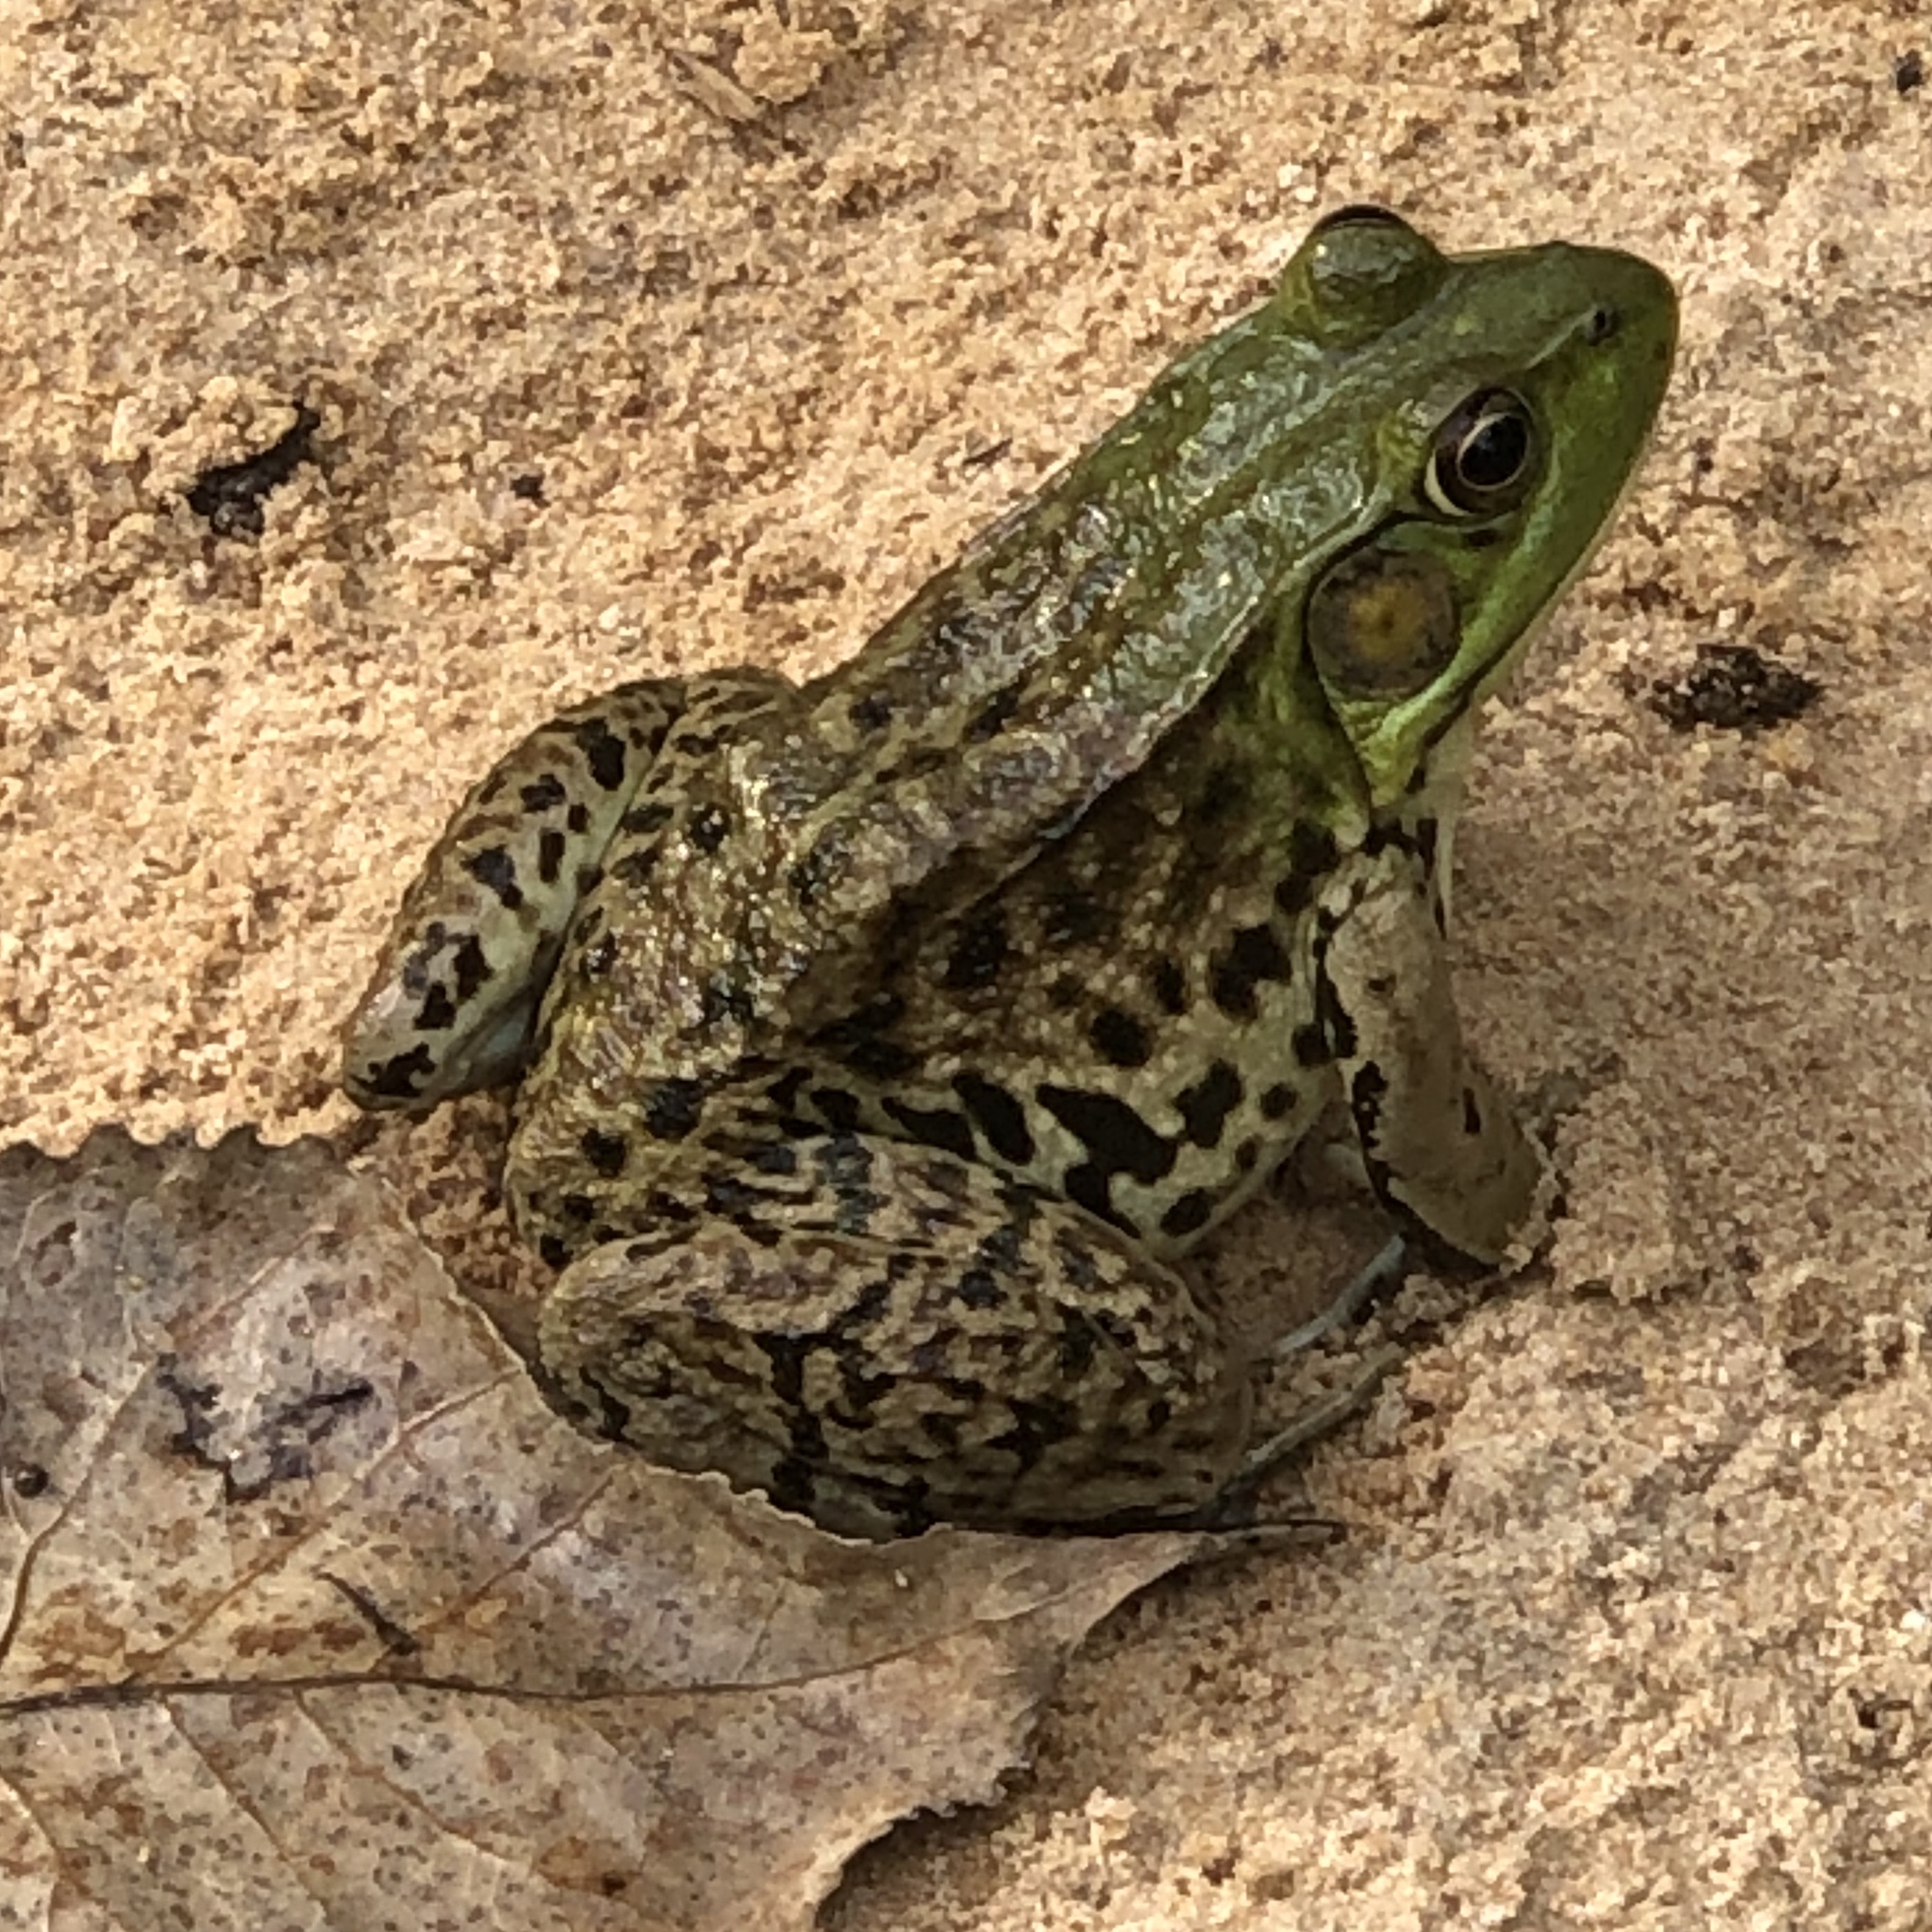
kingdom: Animalia
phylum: Chordata
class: Amphibia
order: Anura
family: Ranidae
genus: Lithobates
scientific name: Lithobates clamitans
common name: Green frog
